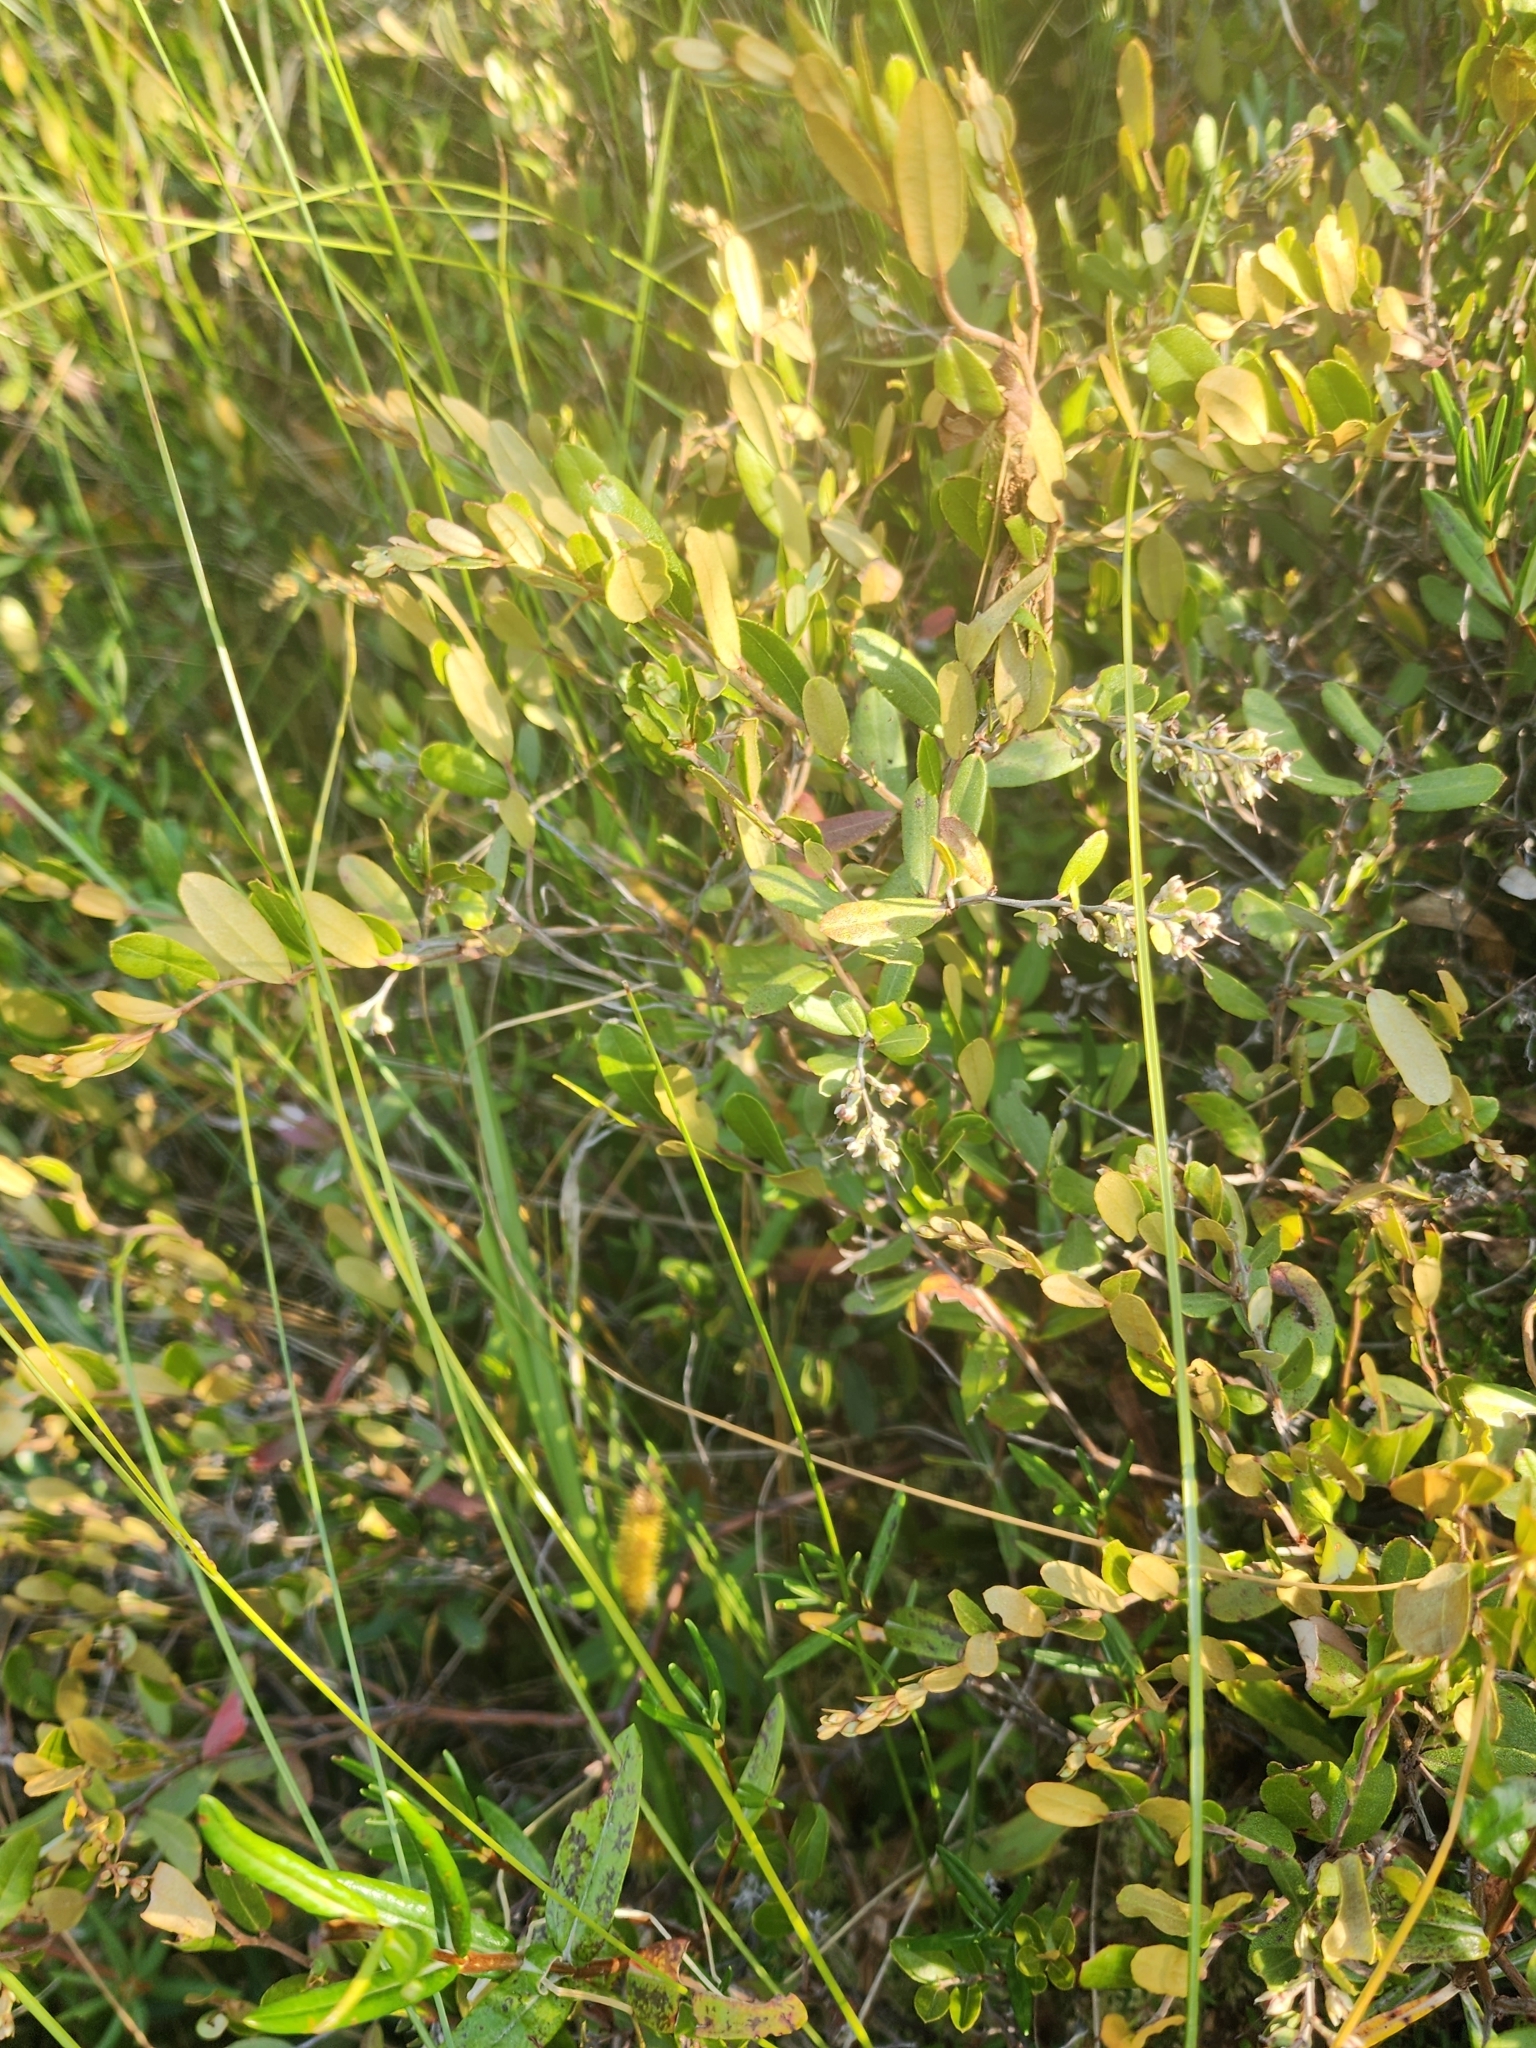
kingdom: Plantae
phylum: Tracheophyta
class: Magnoliopsida
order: Ericales
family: Ericaceae
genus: Chamaedaphne
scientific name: Chamaedaphne calyculata
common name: Leatherleaf
